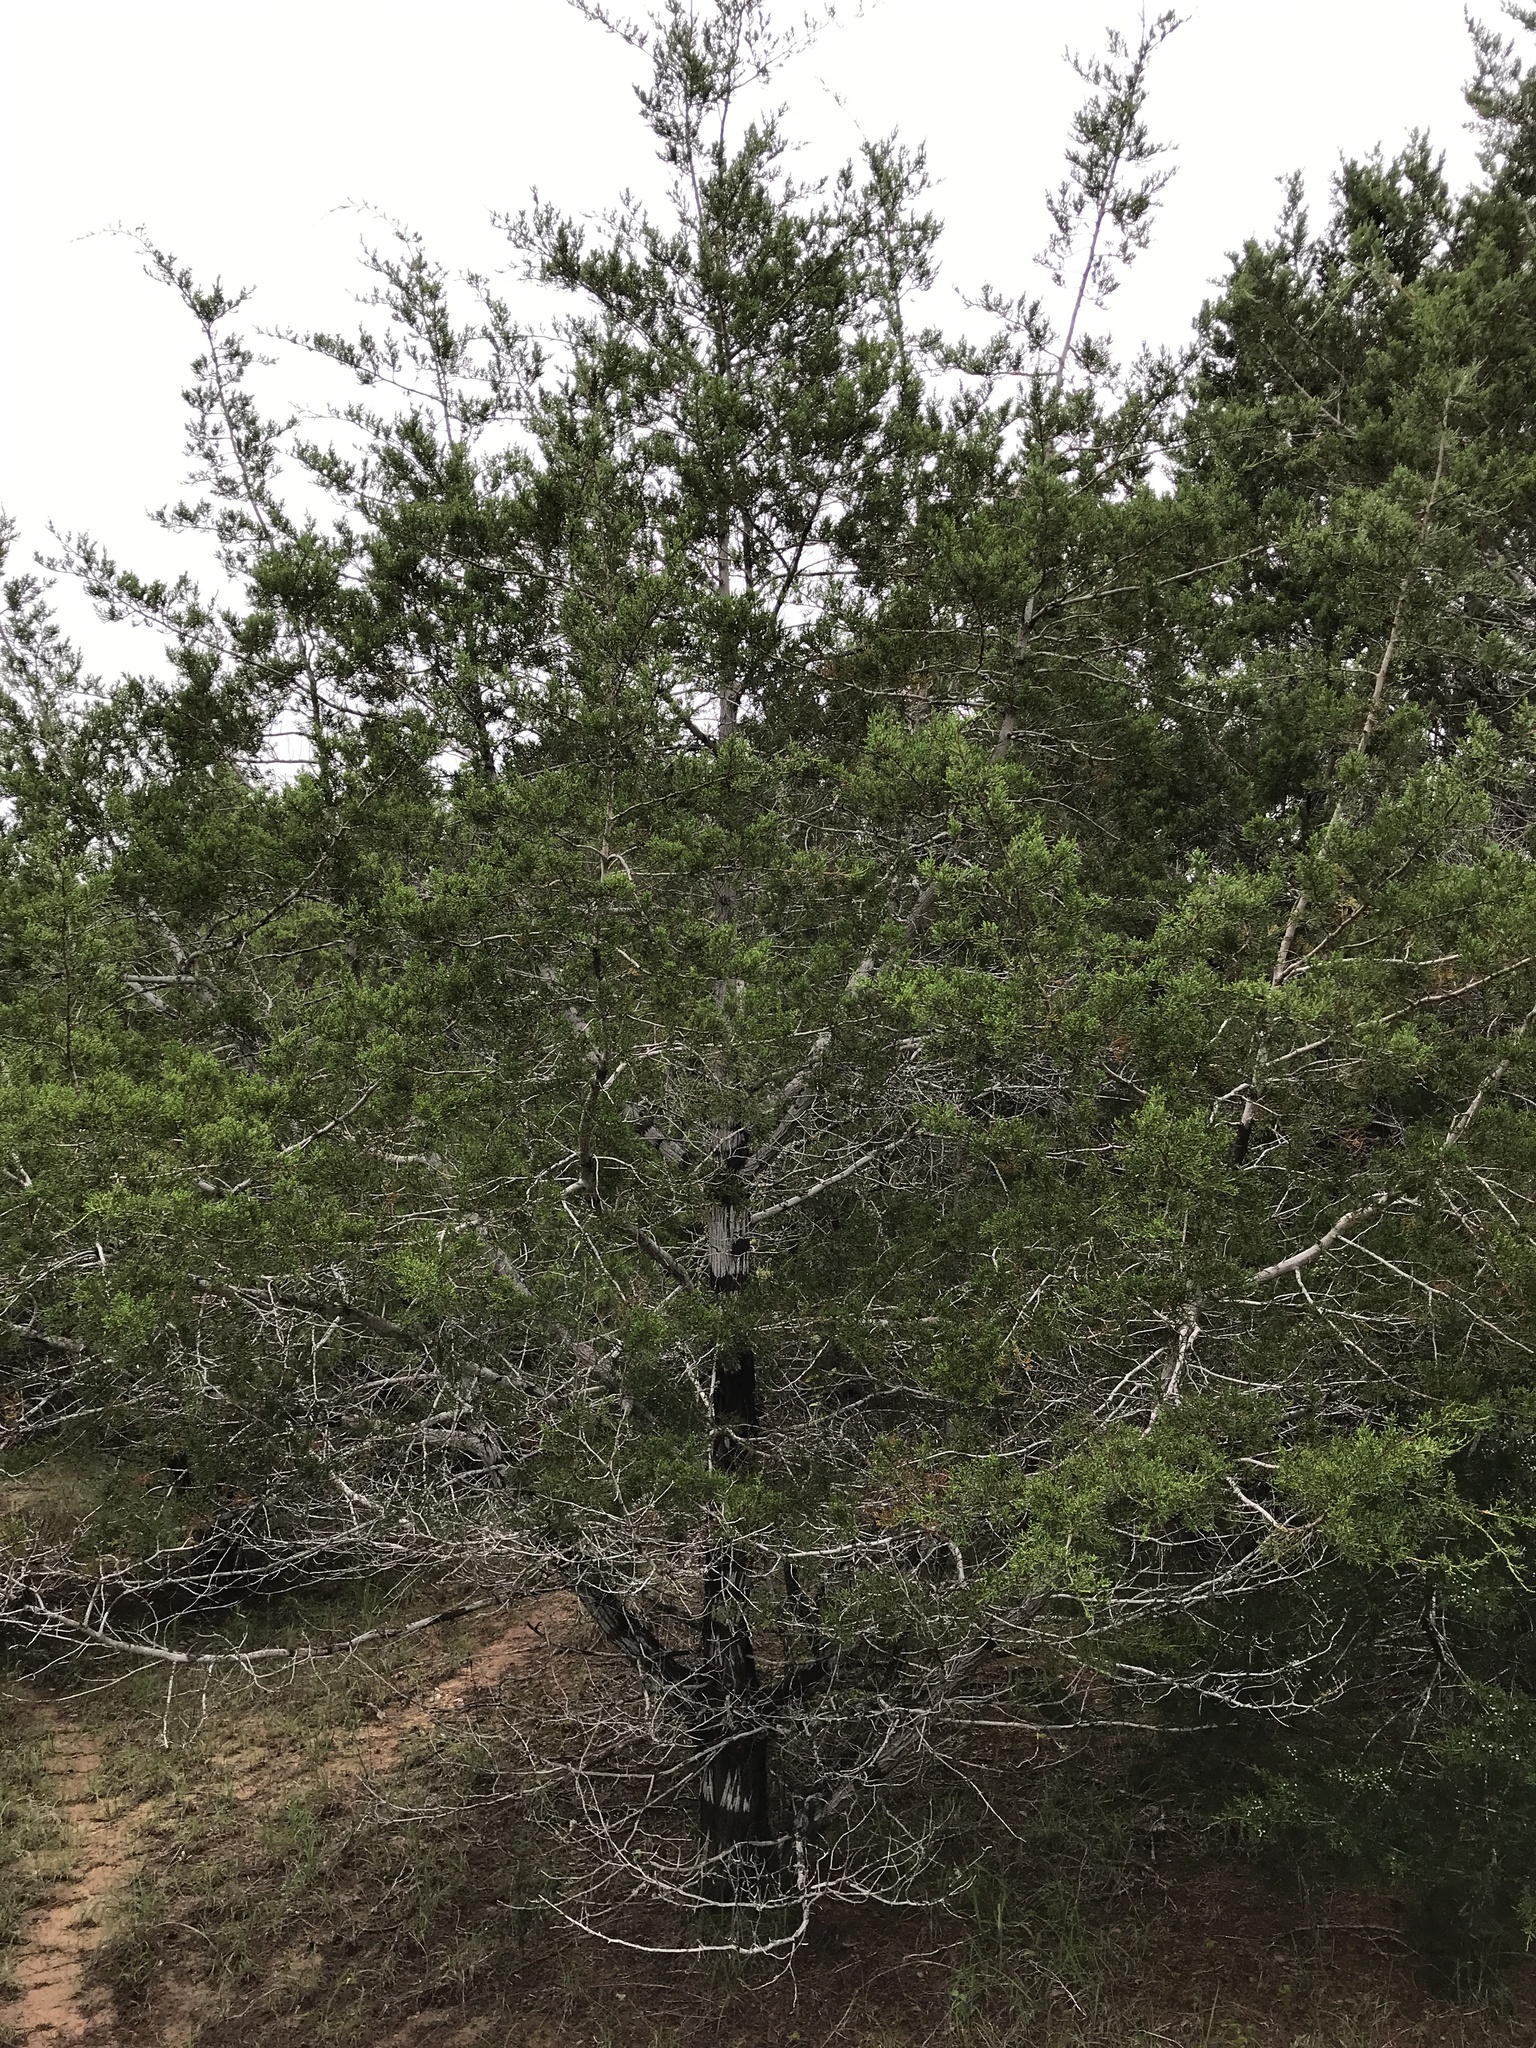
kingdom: Plantae
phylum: Tracheophyta
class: Pinopsida
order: Pinales
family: Cupressaceae
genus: Juniperus
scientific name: Juniperus ashei
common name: Mexican juniper
